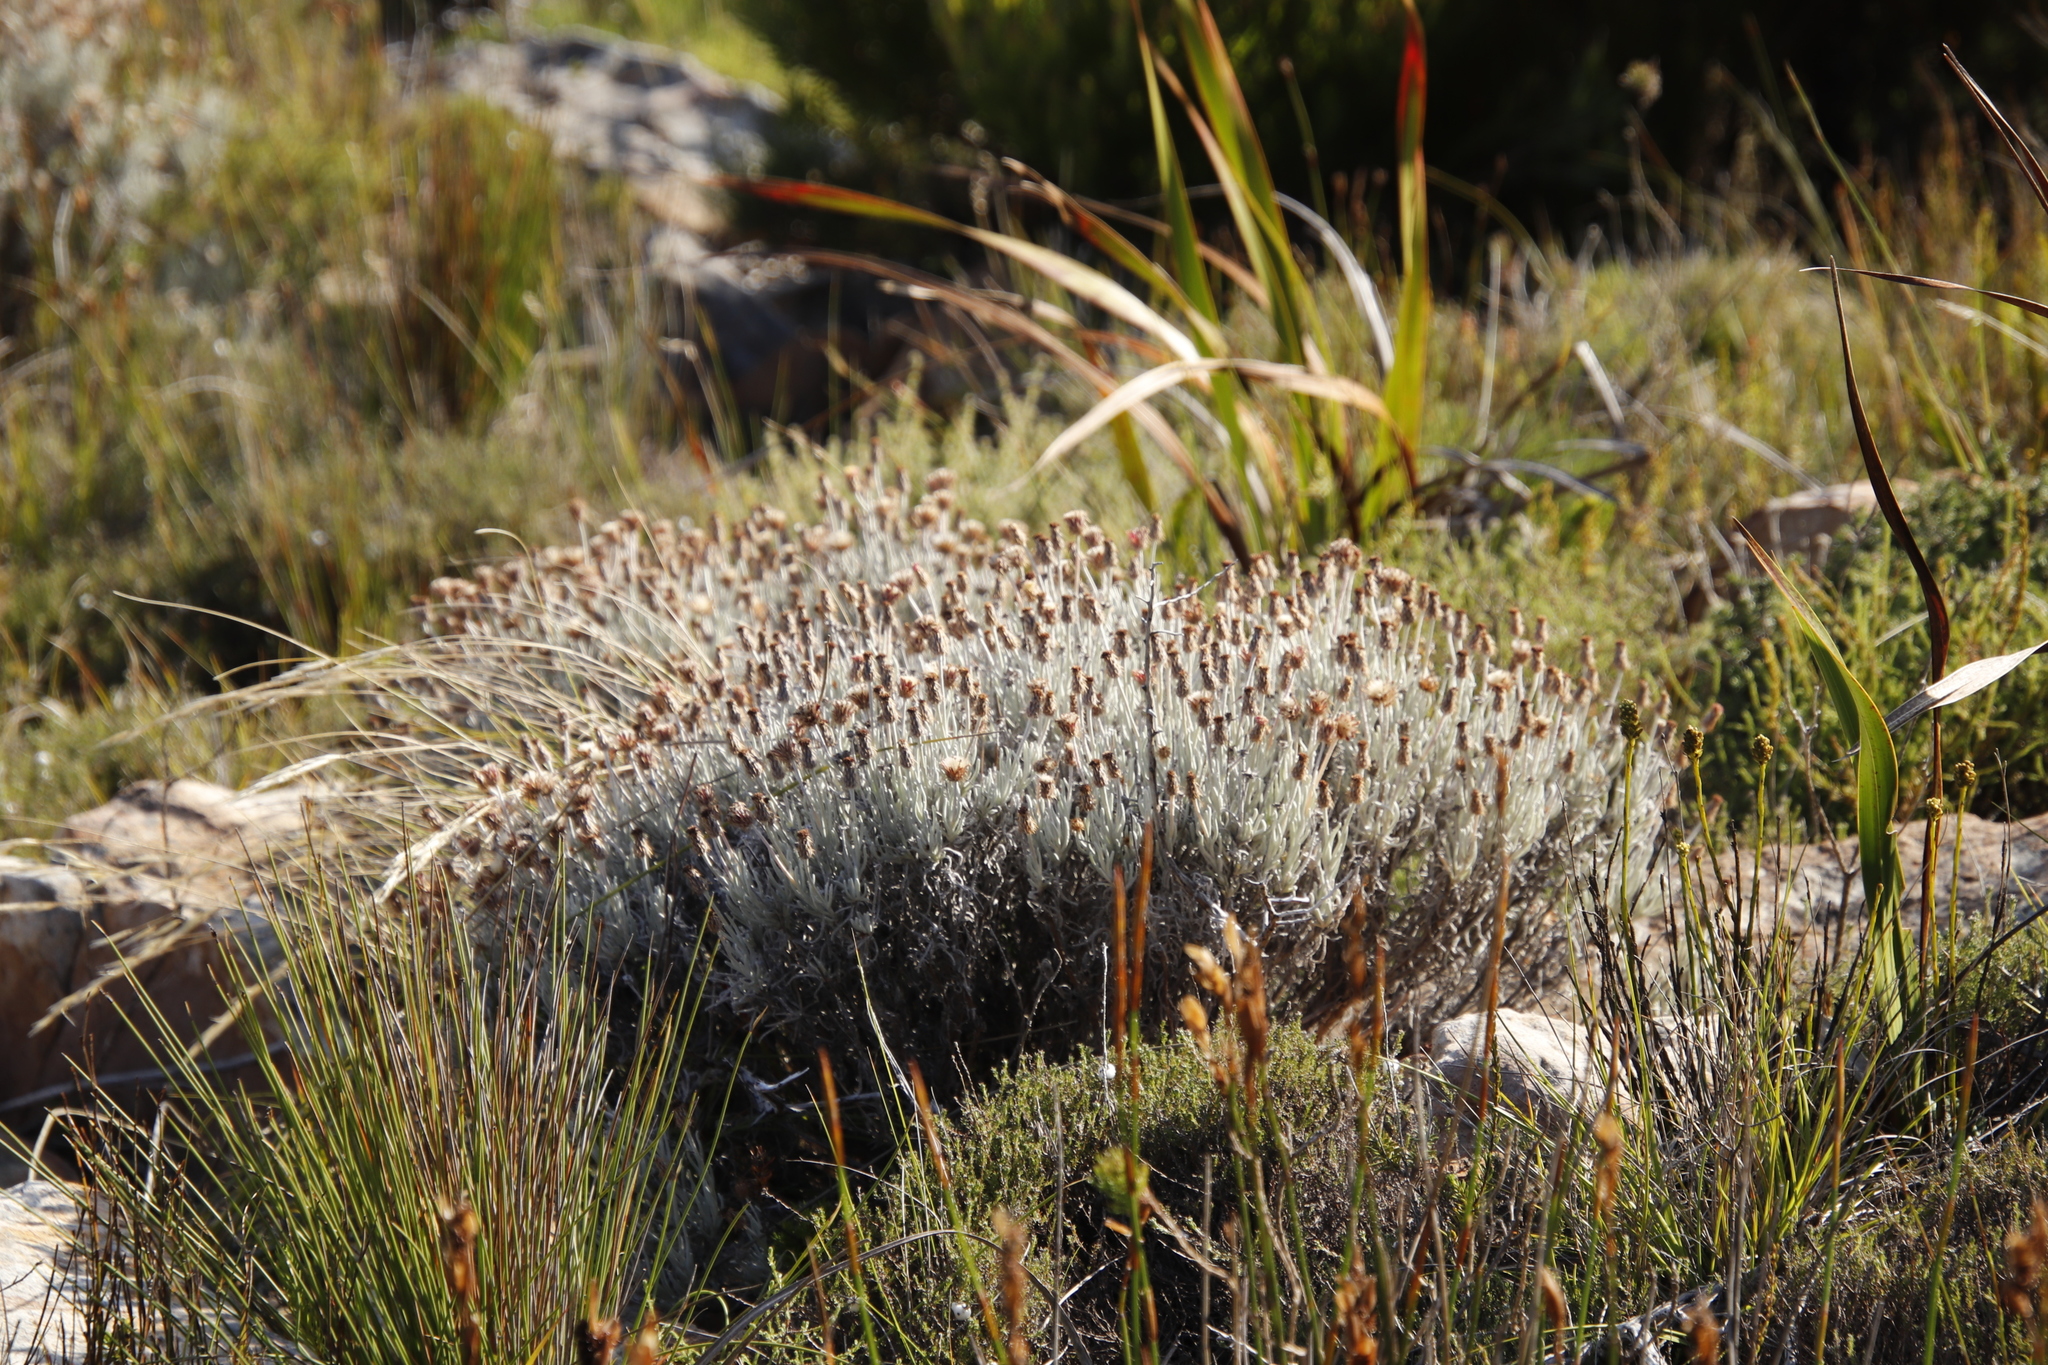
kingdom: Plantae
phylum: Tracheophyta
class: Magnoliopsida
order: Asterales
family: Asteraceae
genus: Syncarpha
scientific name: Syncarpha gnaphaloides
